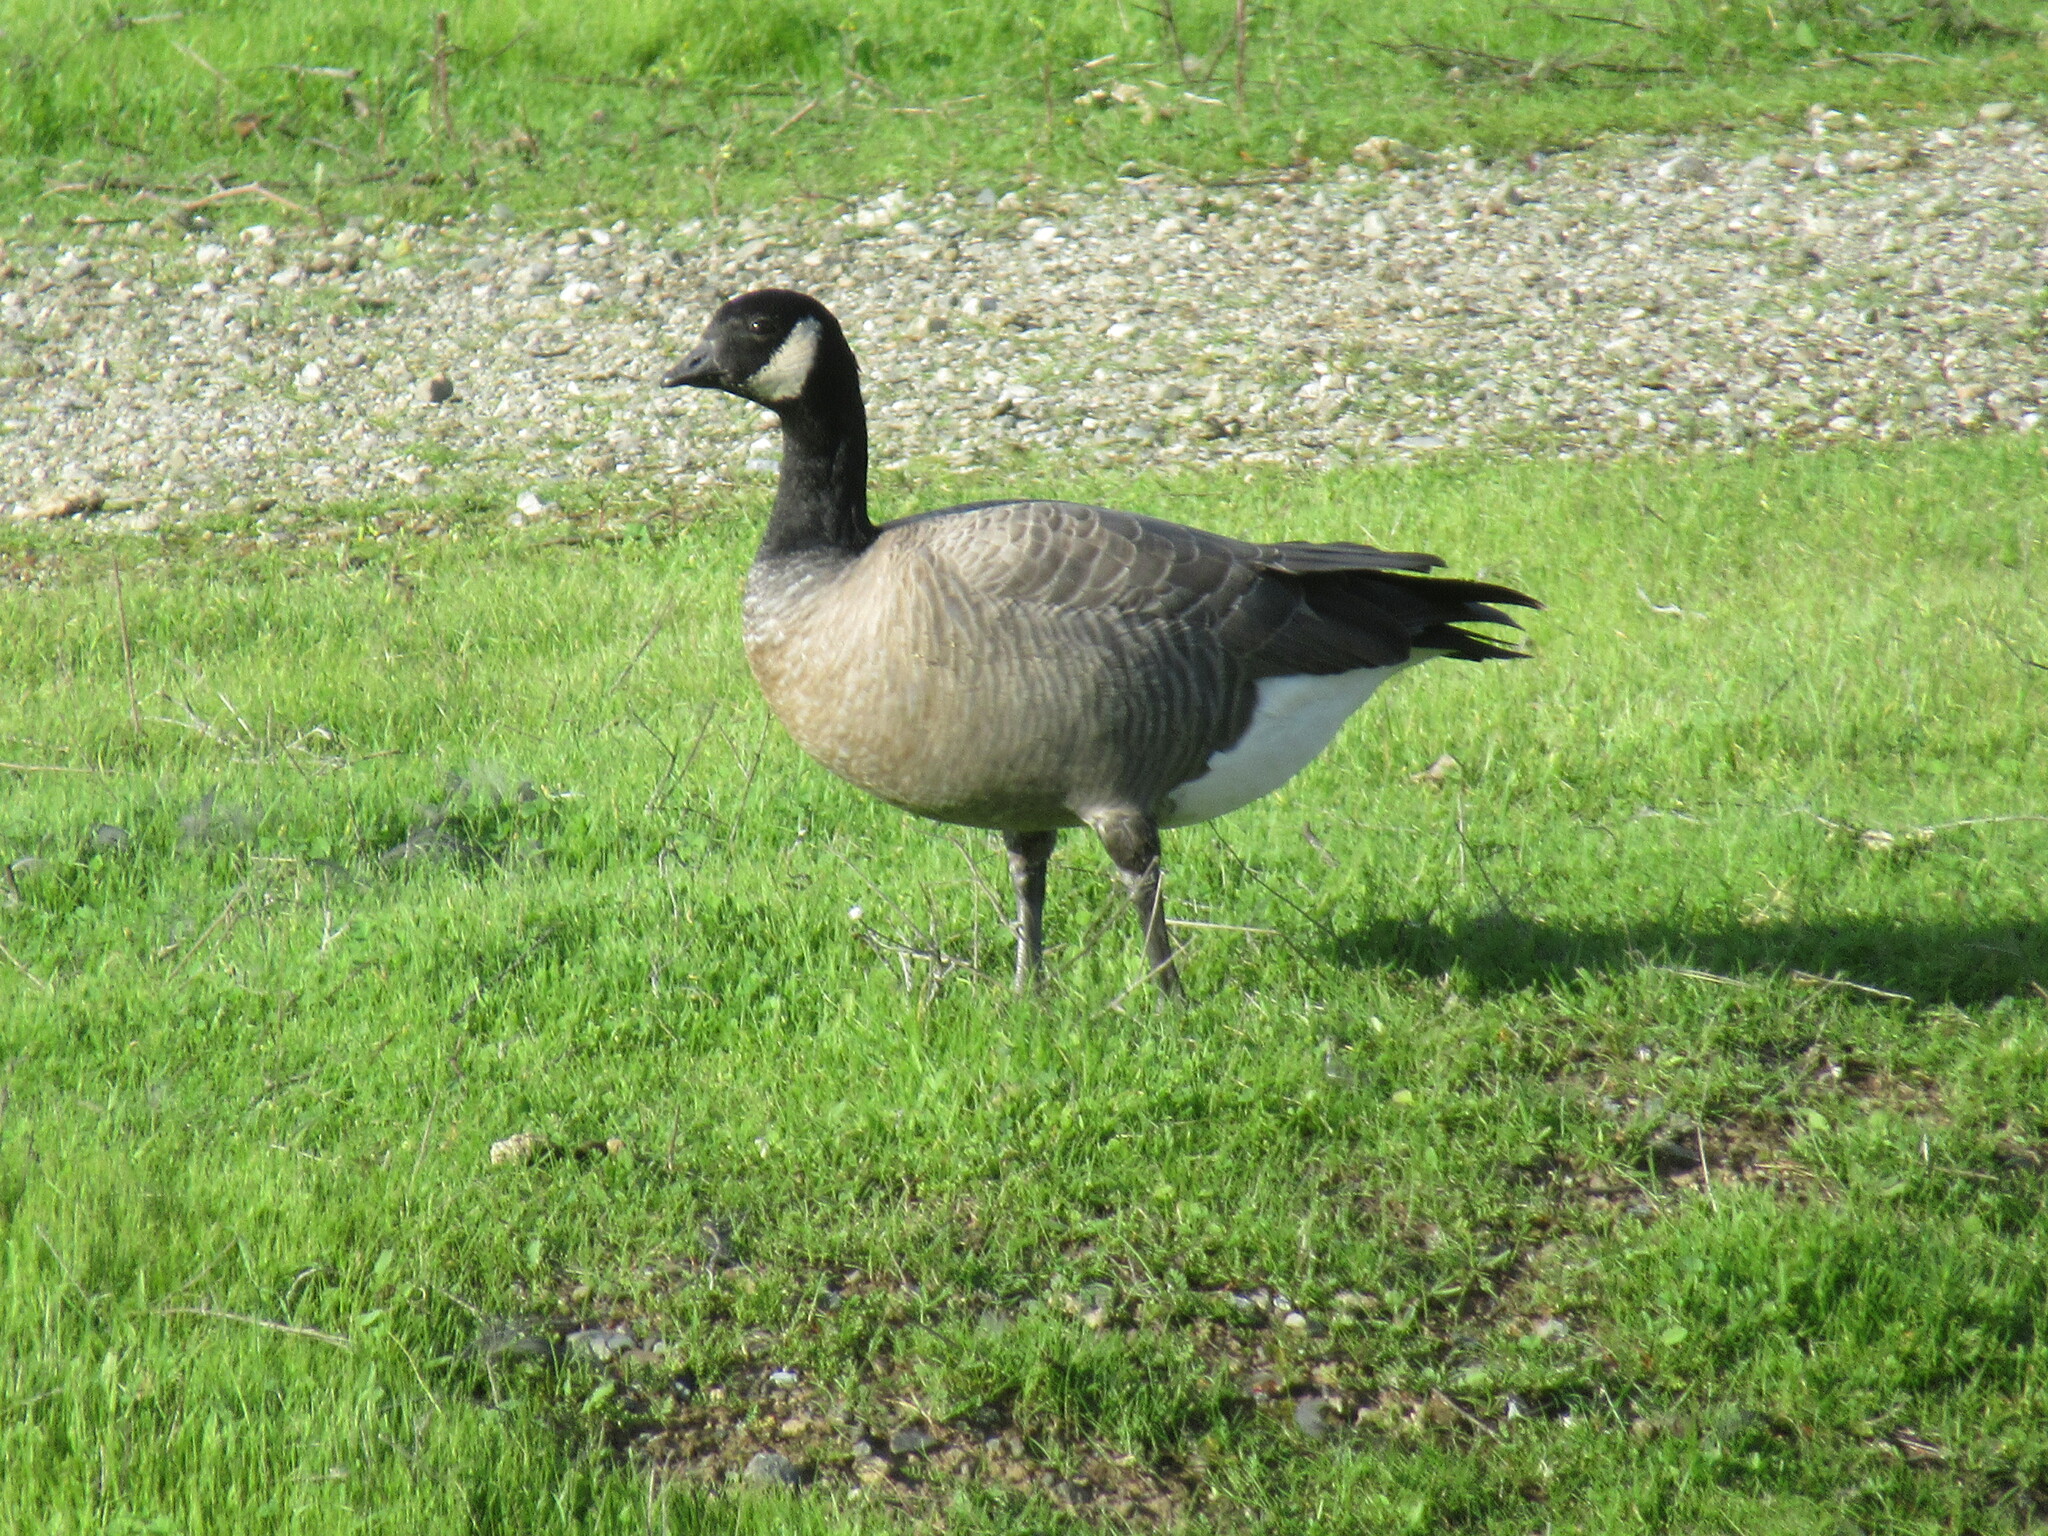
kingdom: Animalia
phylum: Chordata
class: Aves
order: Anseriformes
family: Anatidae
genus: Branta
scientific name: Branta hutchinsii
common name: Cackling goose
